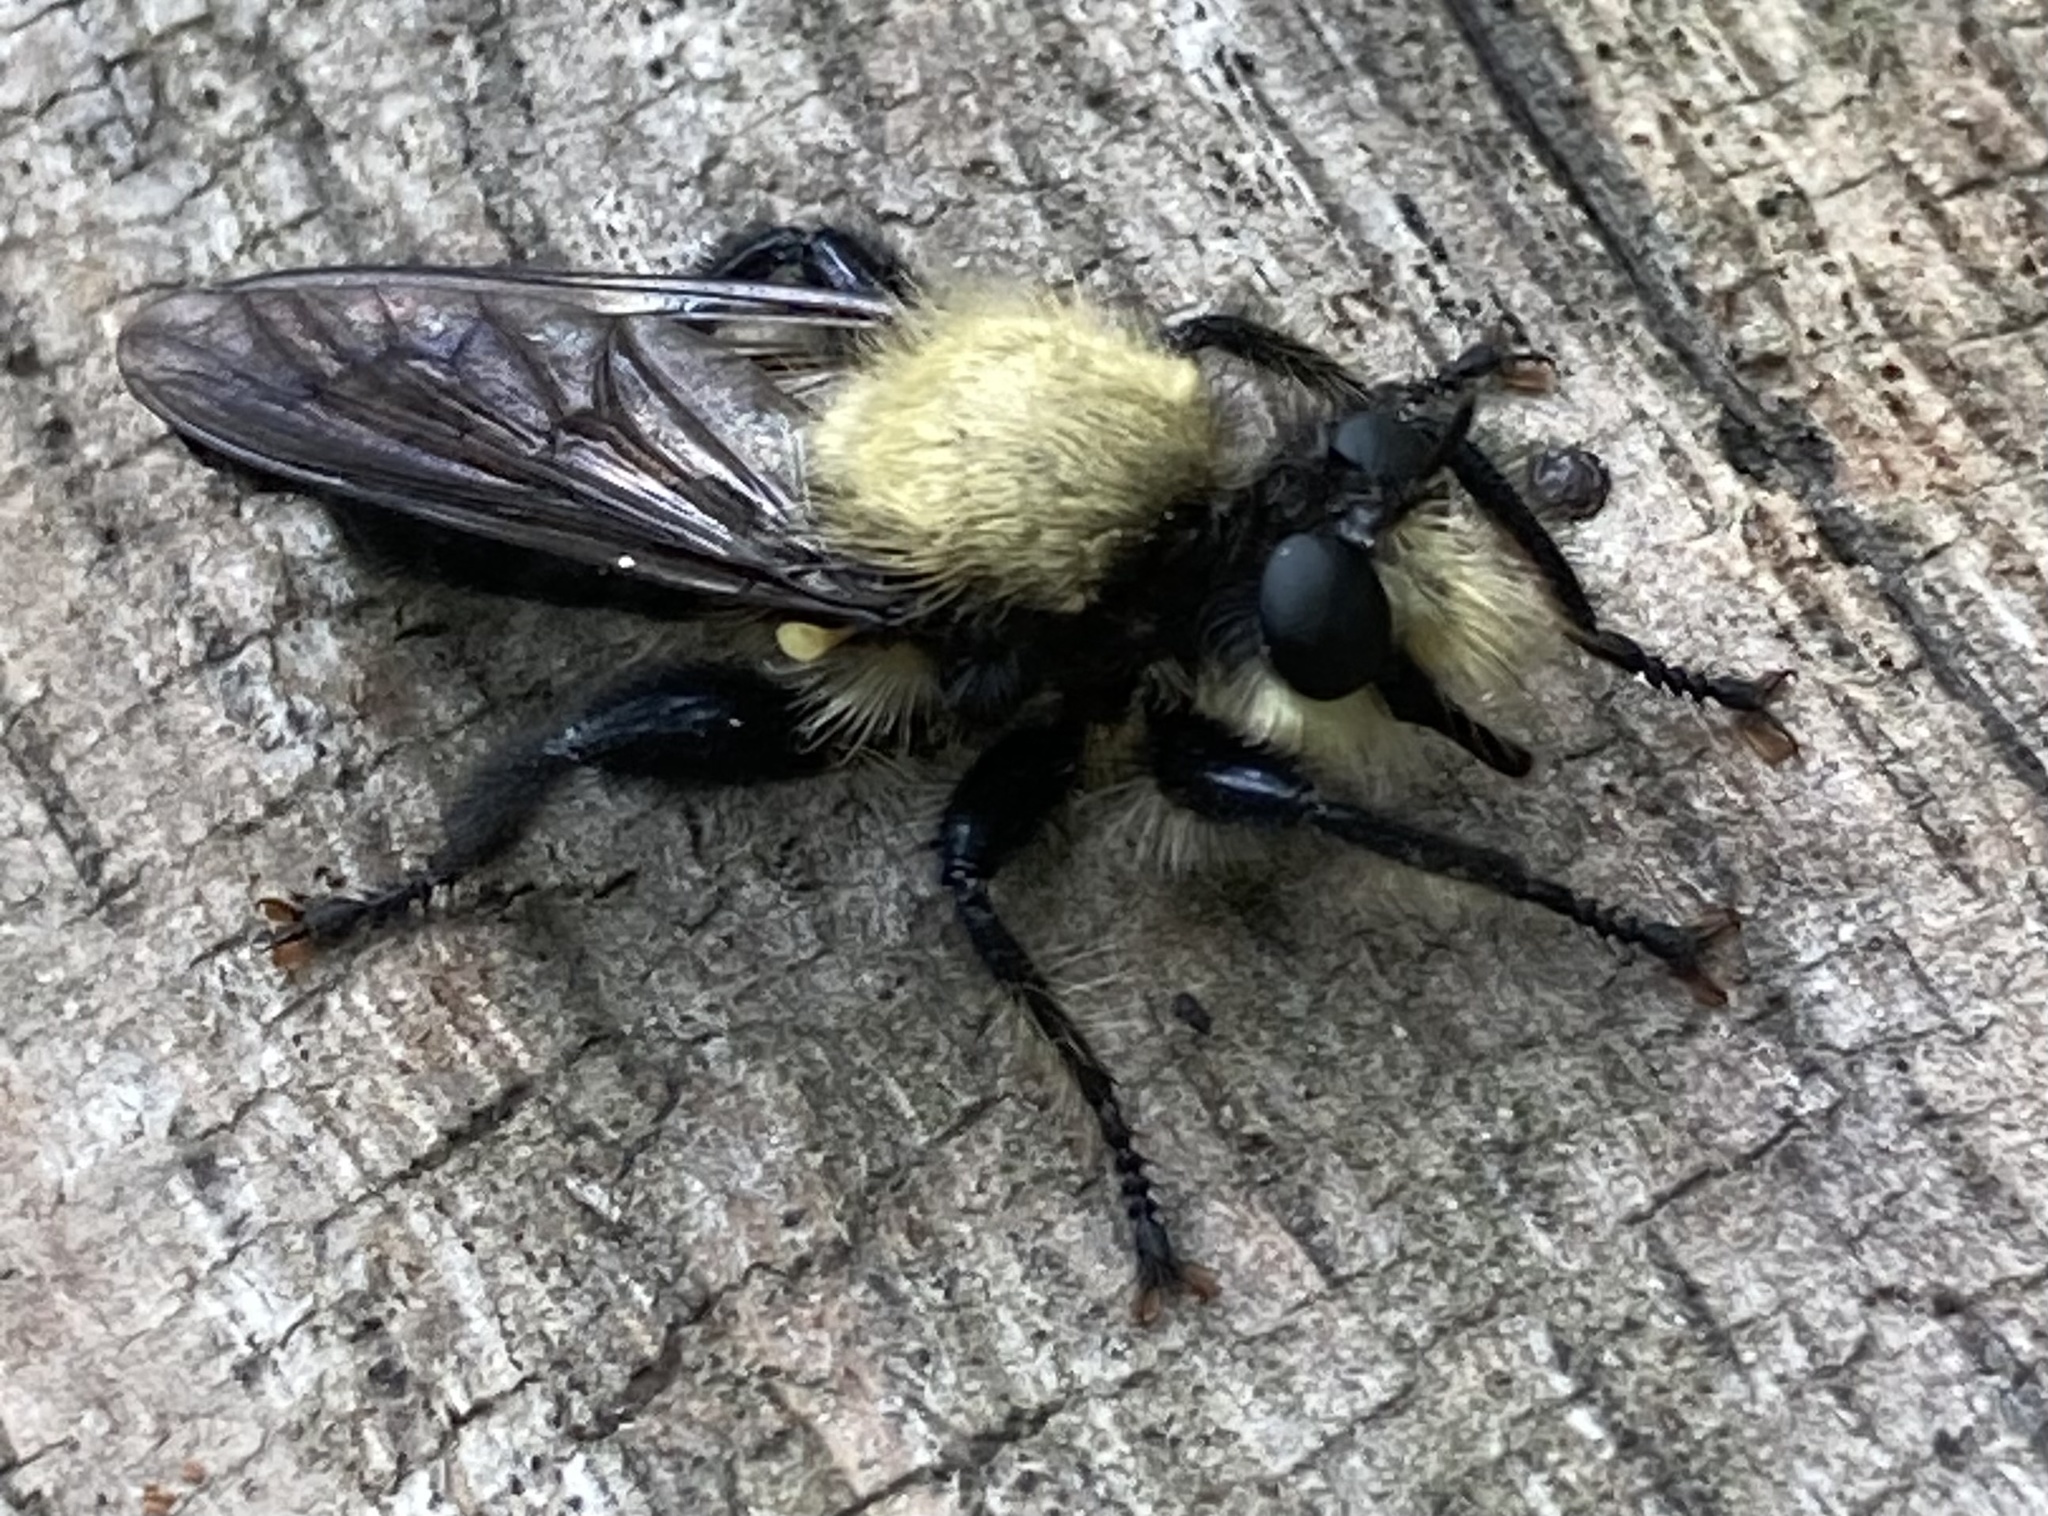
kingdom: Animalia
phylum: Arthropoda
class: Insecta
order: Diptera
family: Asilidae
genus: Laphria
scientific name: Laphria flavicollis
